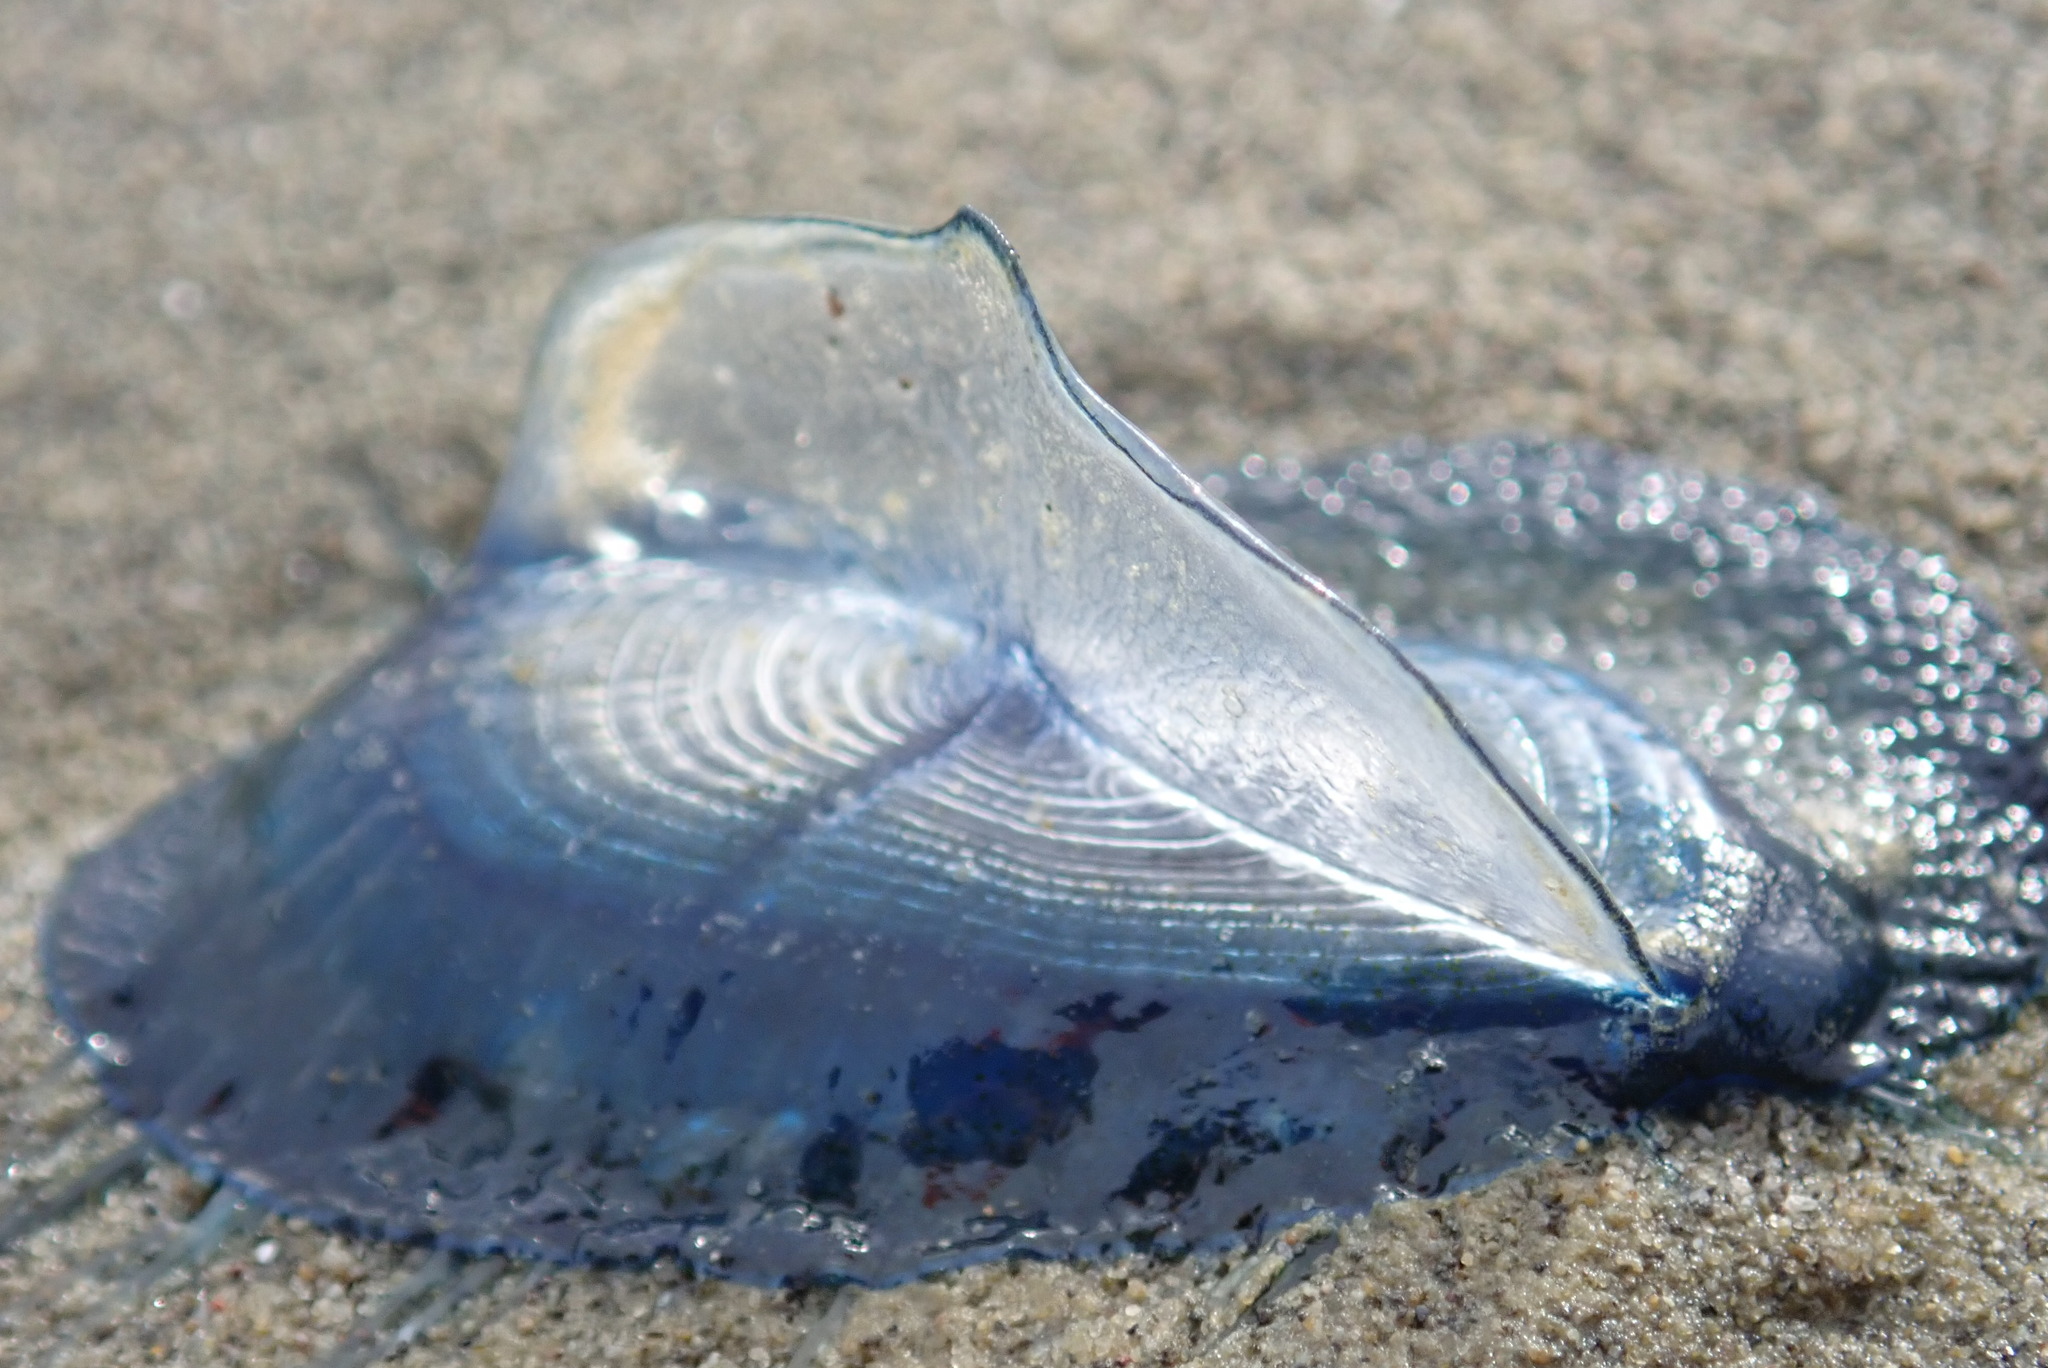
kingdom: Animalia
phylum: Cnidaria
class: Hydrozoa
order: Anthoathecata
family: Porpitidae
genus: Velella
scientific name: Velella velella
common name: By-the-wind-sailor
